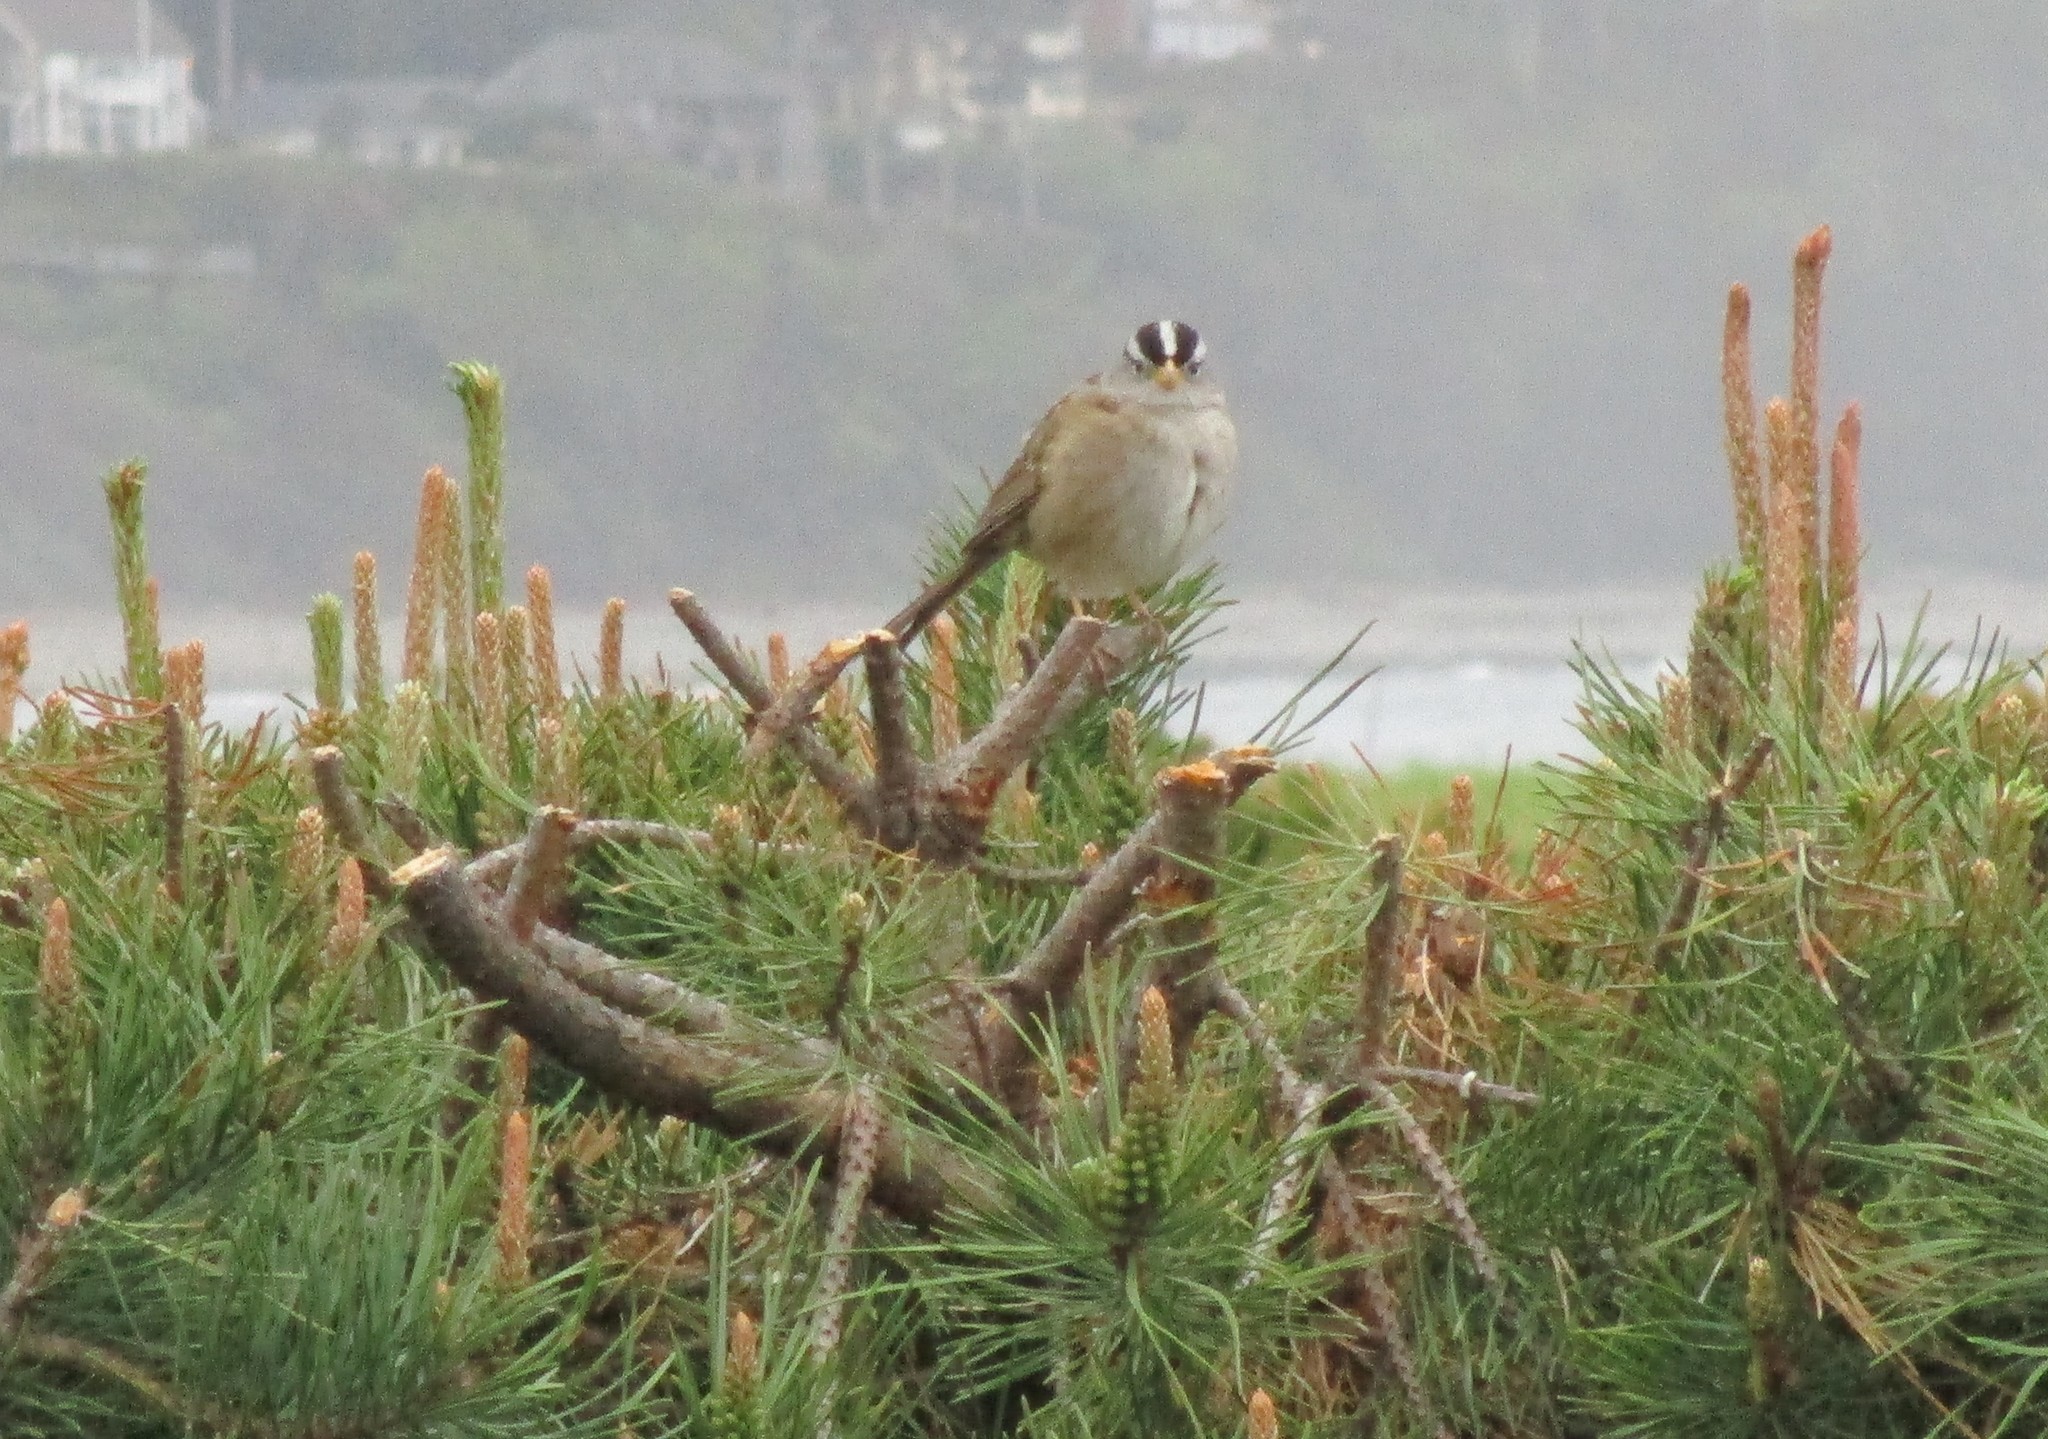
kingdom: Animalia
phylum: Chordata
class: Aves
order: Passeriformes
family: Passerellidae
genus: Zonotrichia
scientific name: Zonotrichia leucophrys
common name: White-crowned sparrow
